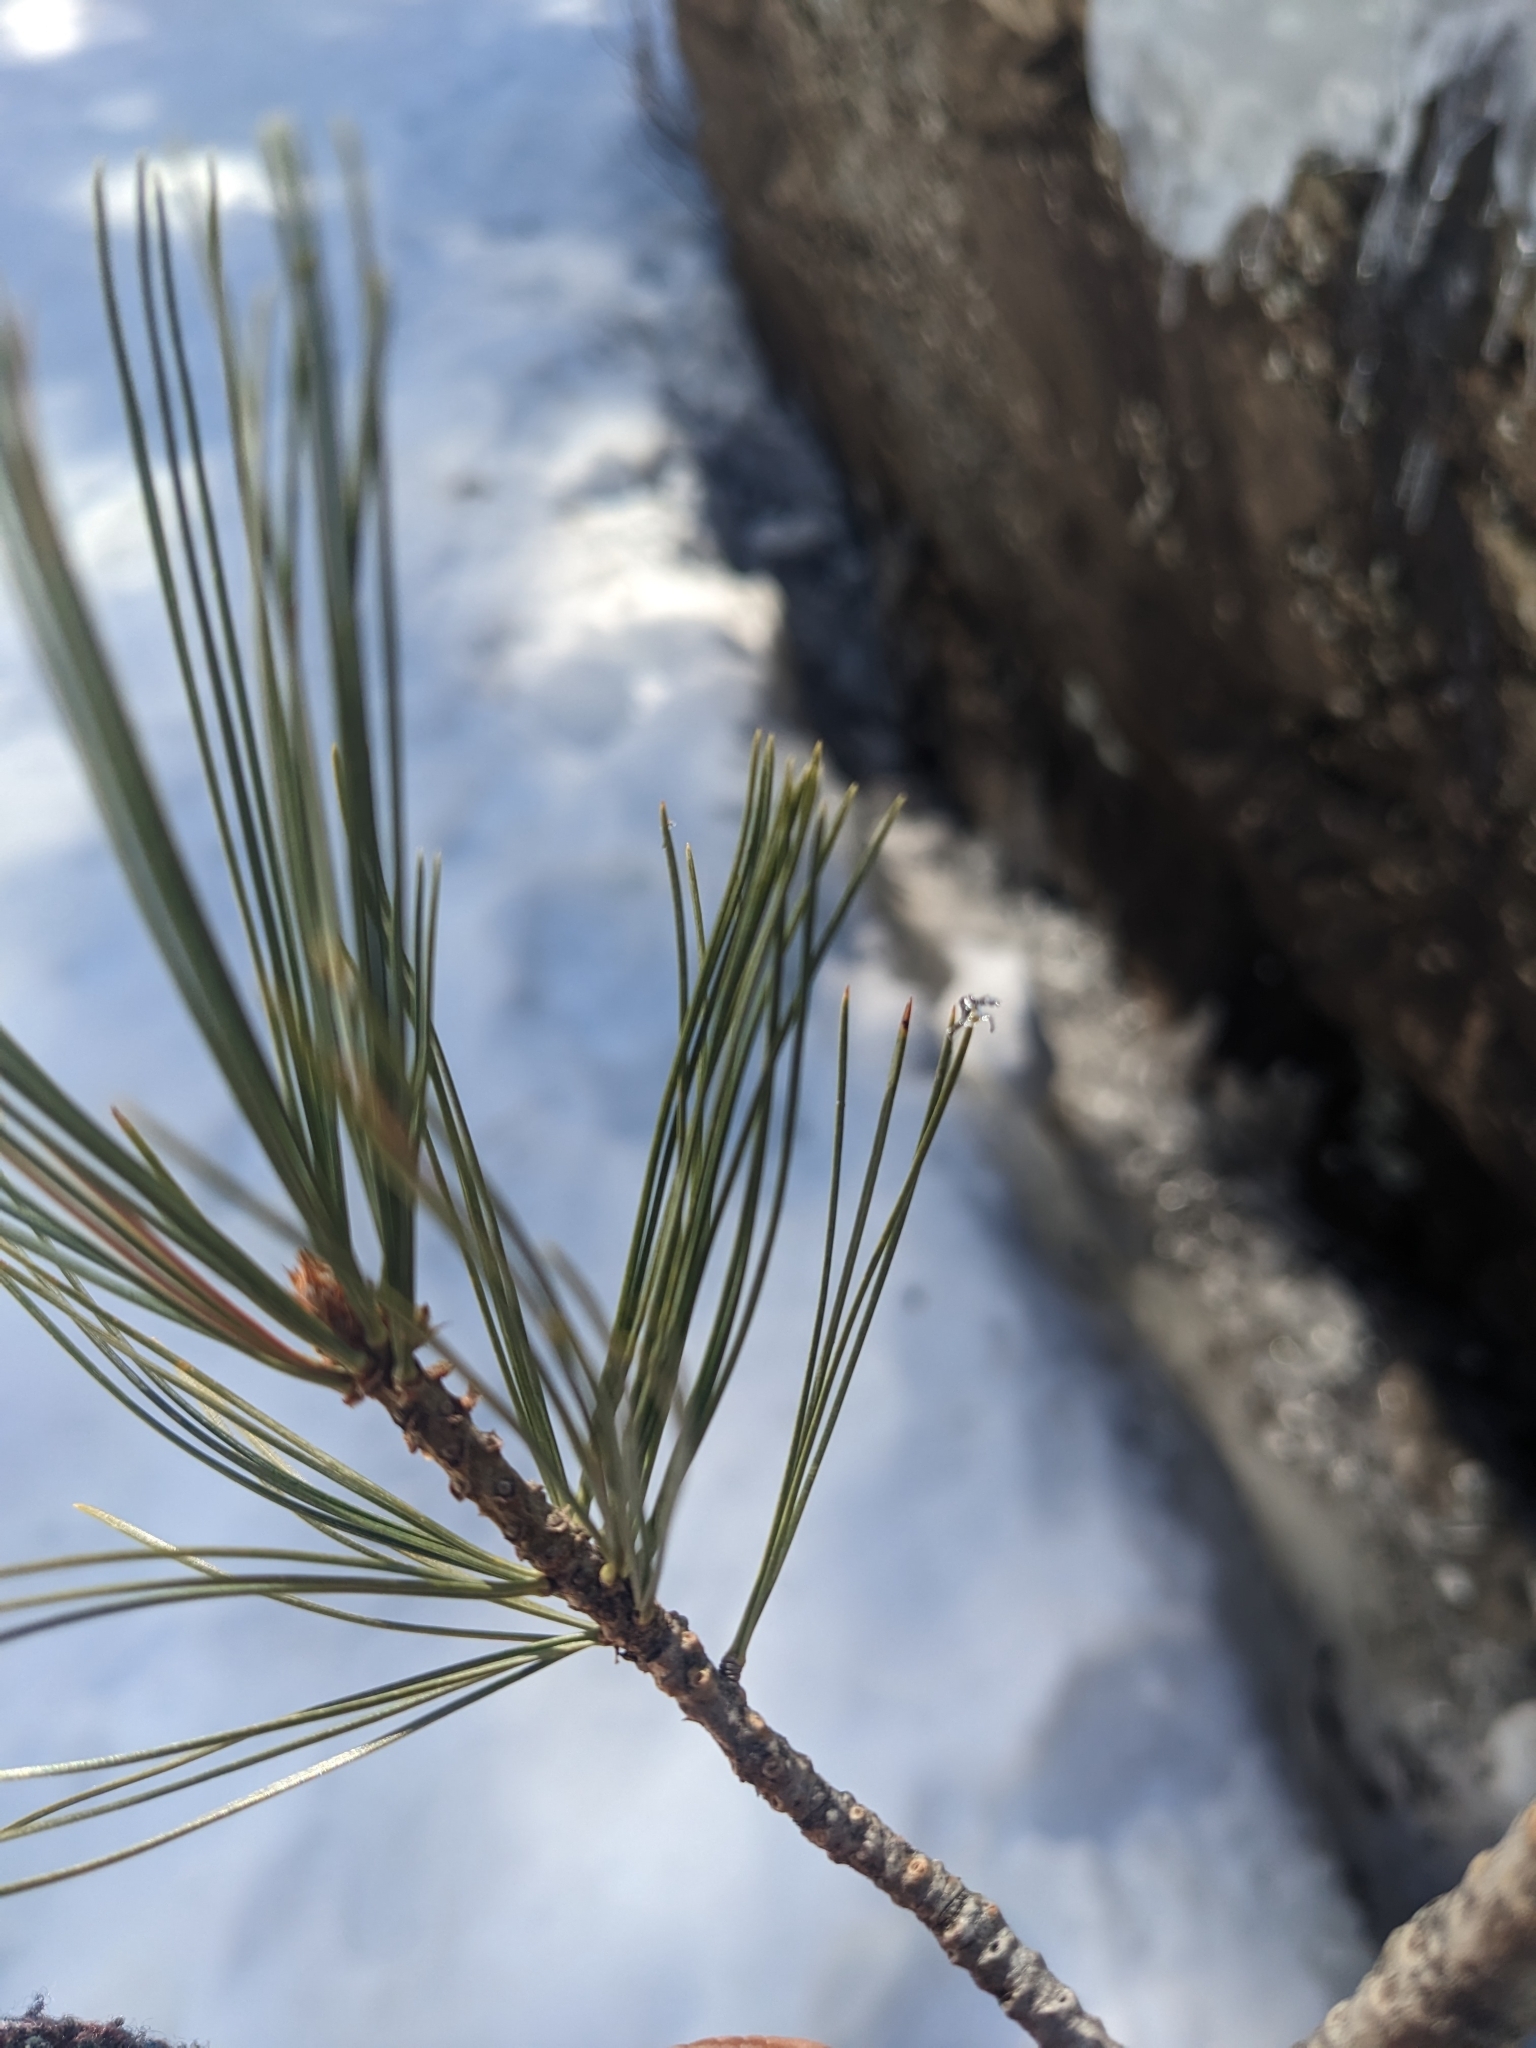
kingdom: Plantae
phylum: Tracheophyta
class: Pinopsida
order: Pinales
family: Pinaceae
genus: Pinus
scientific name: Pinus strobiformis
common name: Southwestern white pine
